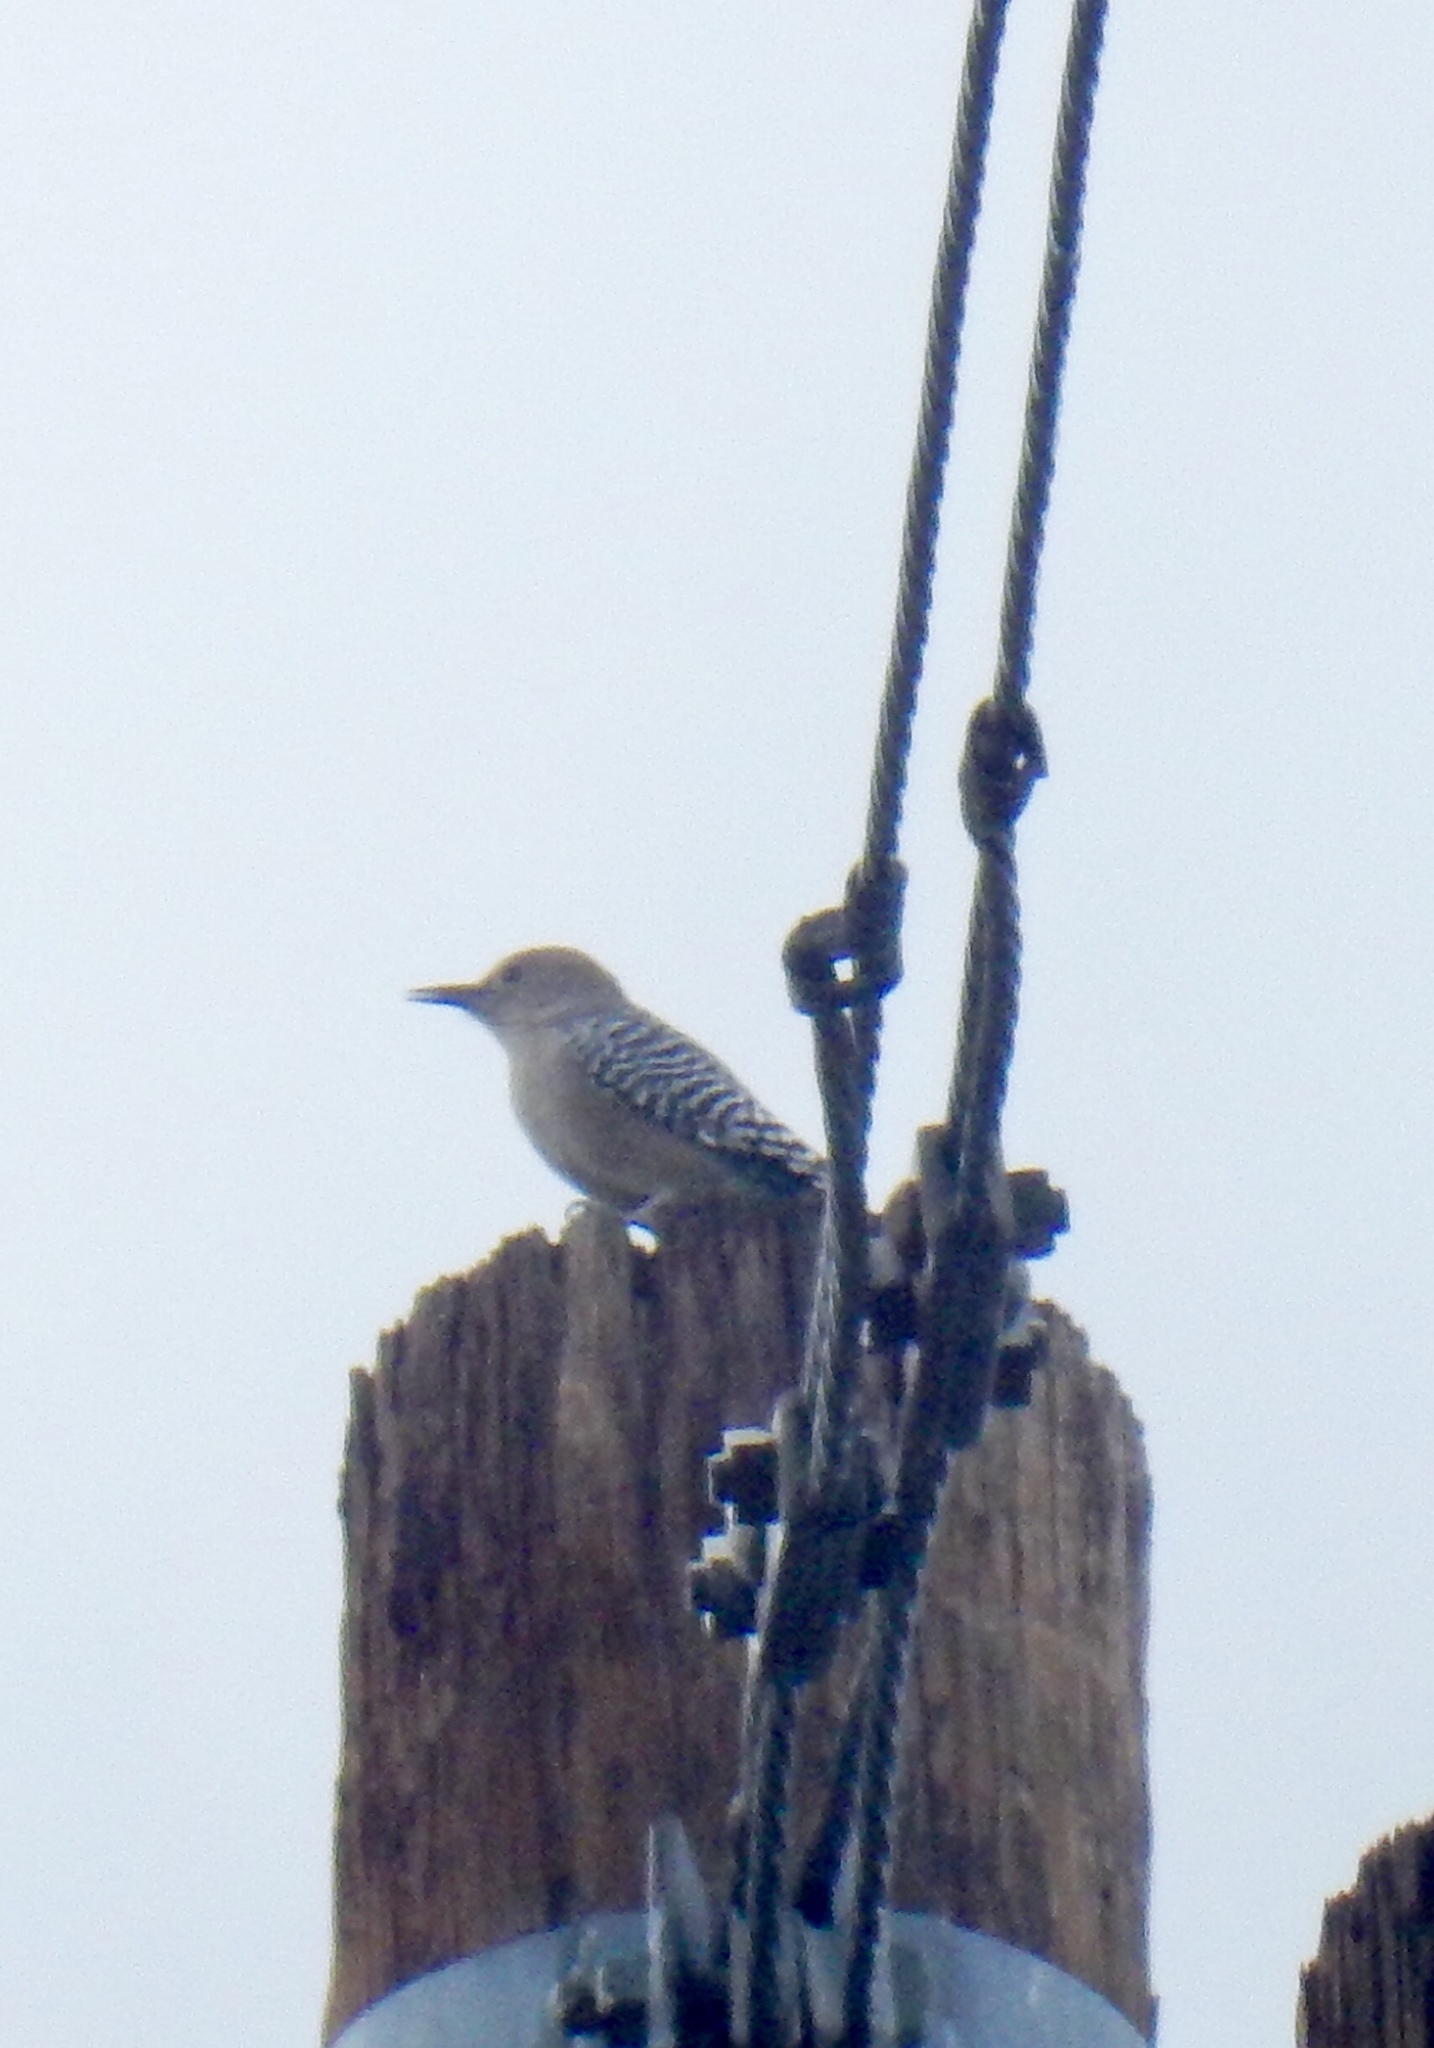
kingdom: Animalia
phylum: Chordata
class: Aves
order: Piciformes
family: Picidae
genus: Melanerpes
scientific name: Melanerpes uropygialis
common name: Gila woodpecker
